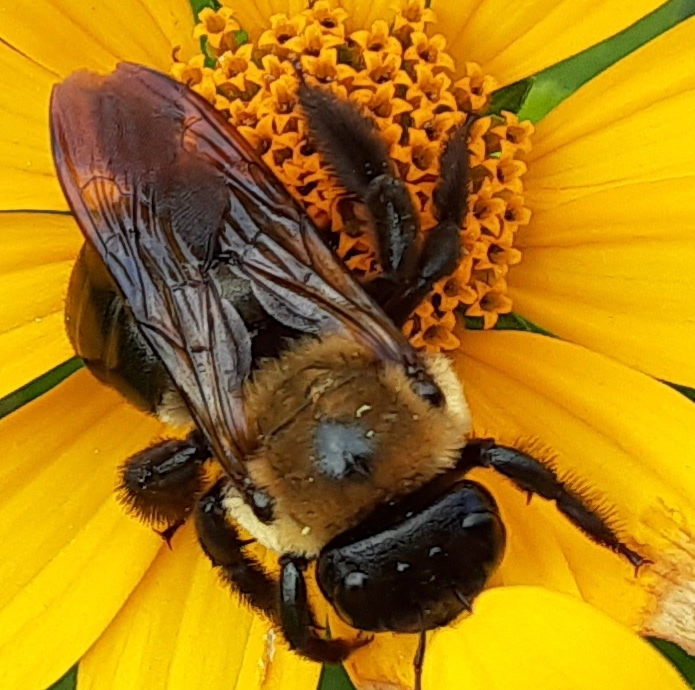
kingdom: Animalia
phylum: Arthropoda
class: Insecta
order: Hymenoptera
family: Apidae
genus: Xylocopa
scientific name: Xylocopa virginica
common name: Carpenter bee
